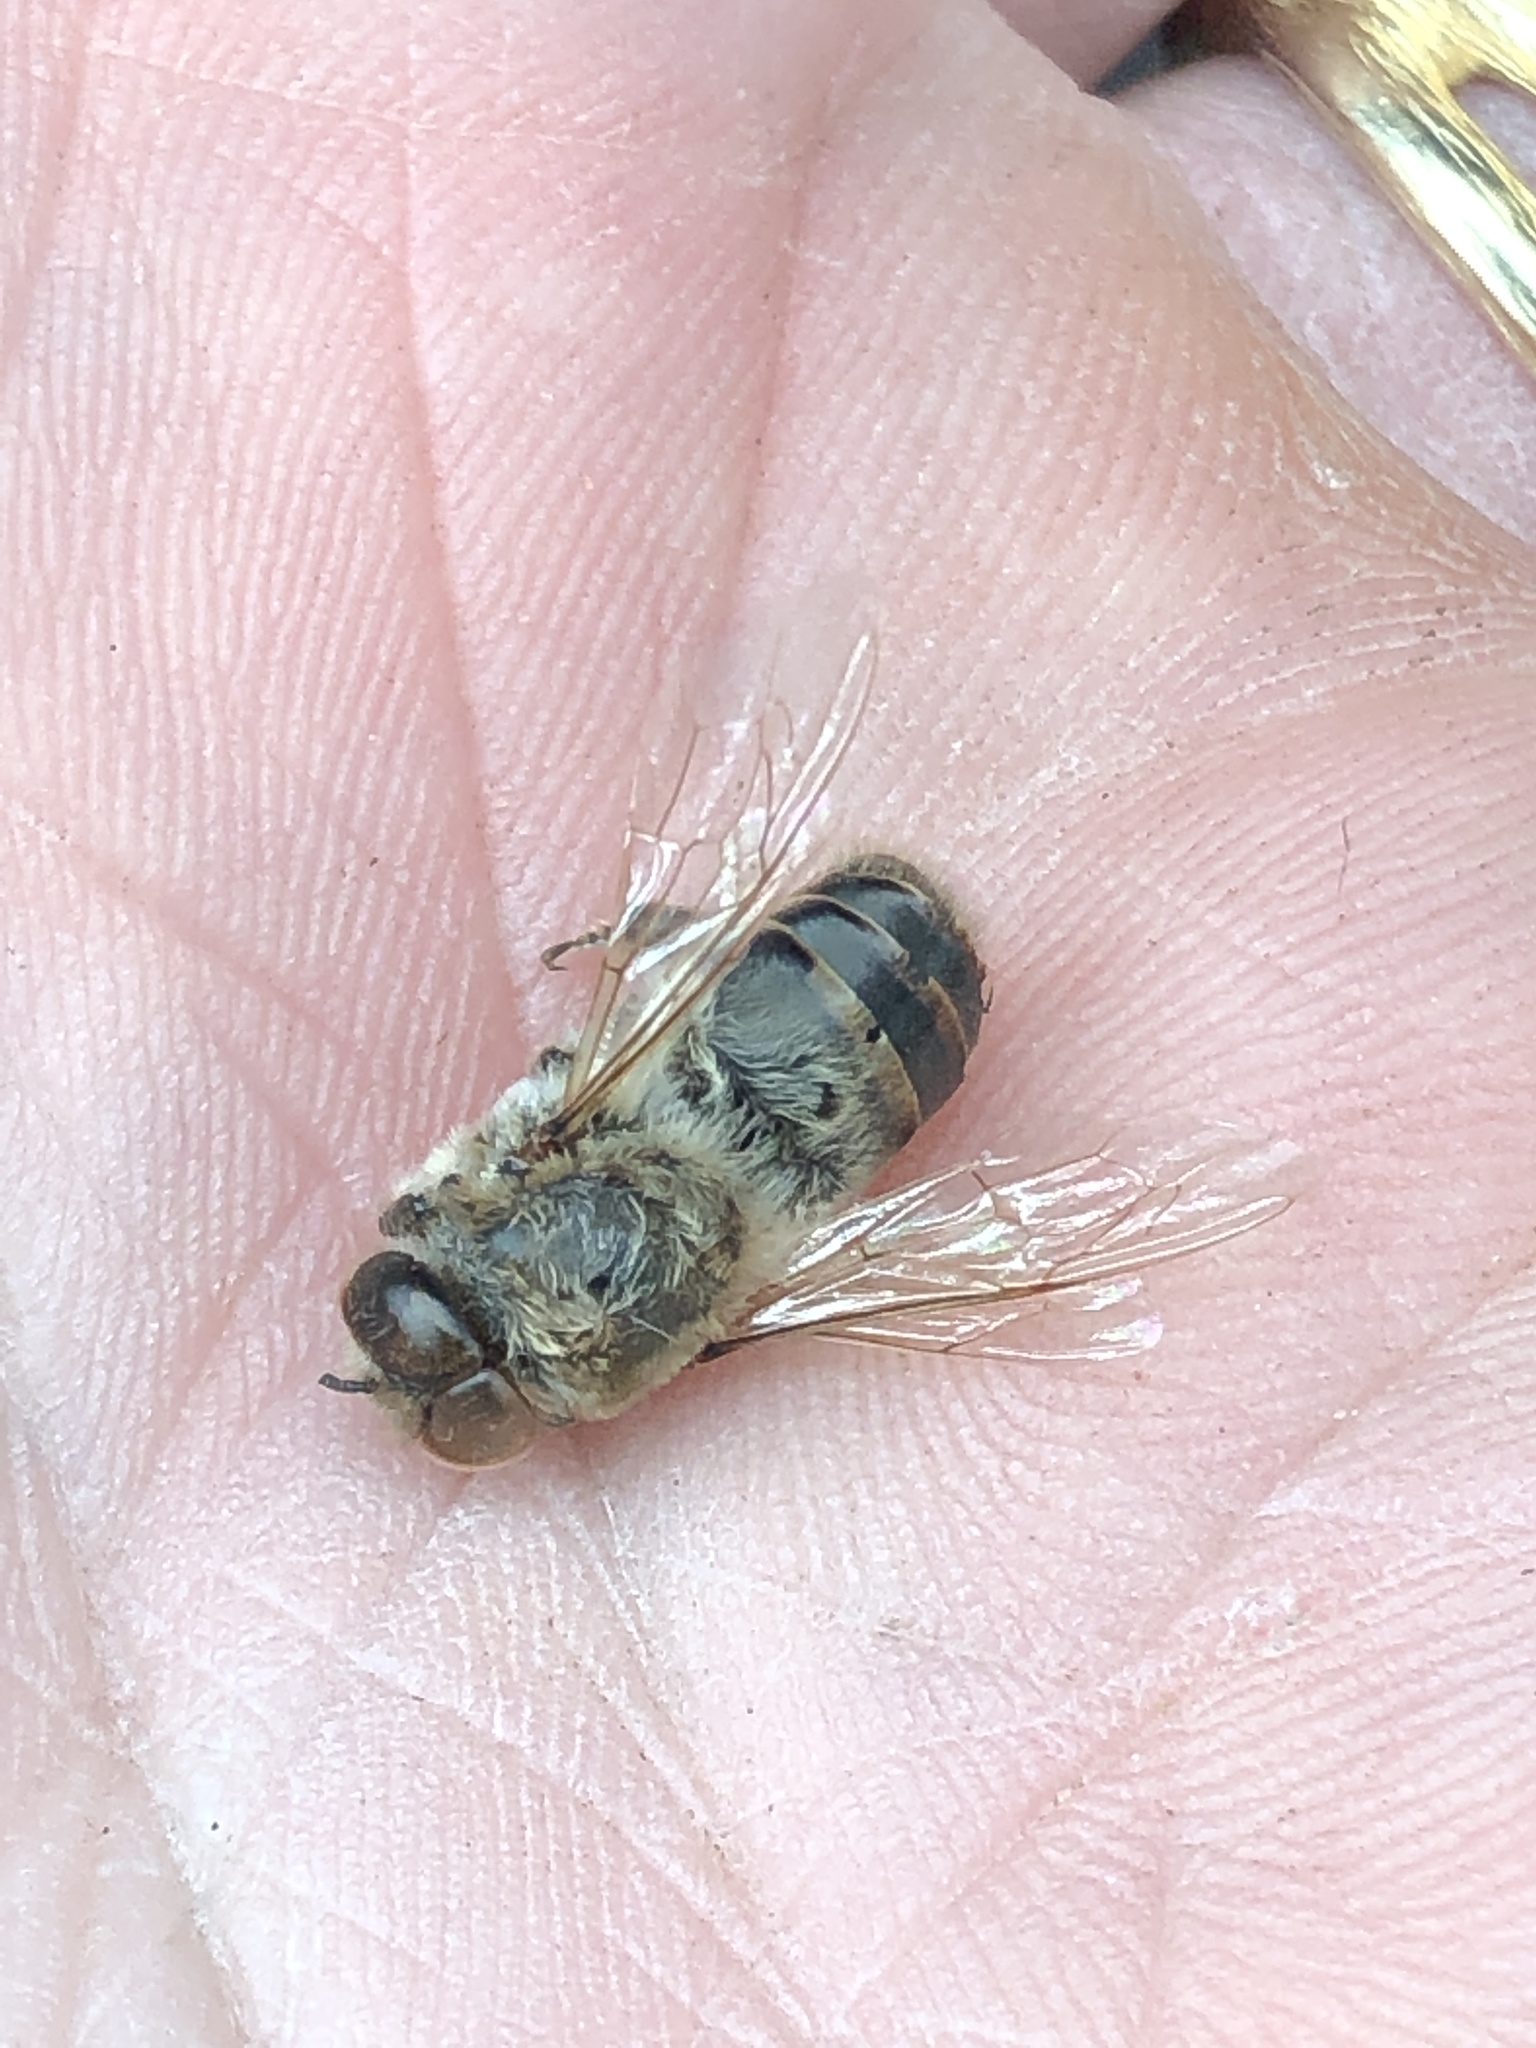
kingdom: Animalia
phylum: Arthropoda
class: Insecta
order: Hymenoptera
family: Apidae
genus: Apis
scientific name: Apis mellifera
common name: Honey bee
